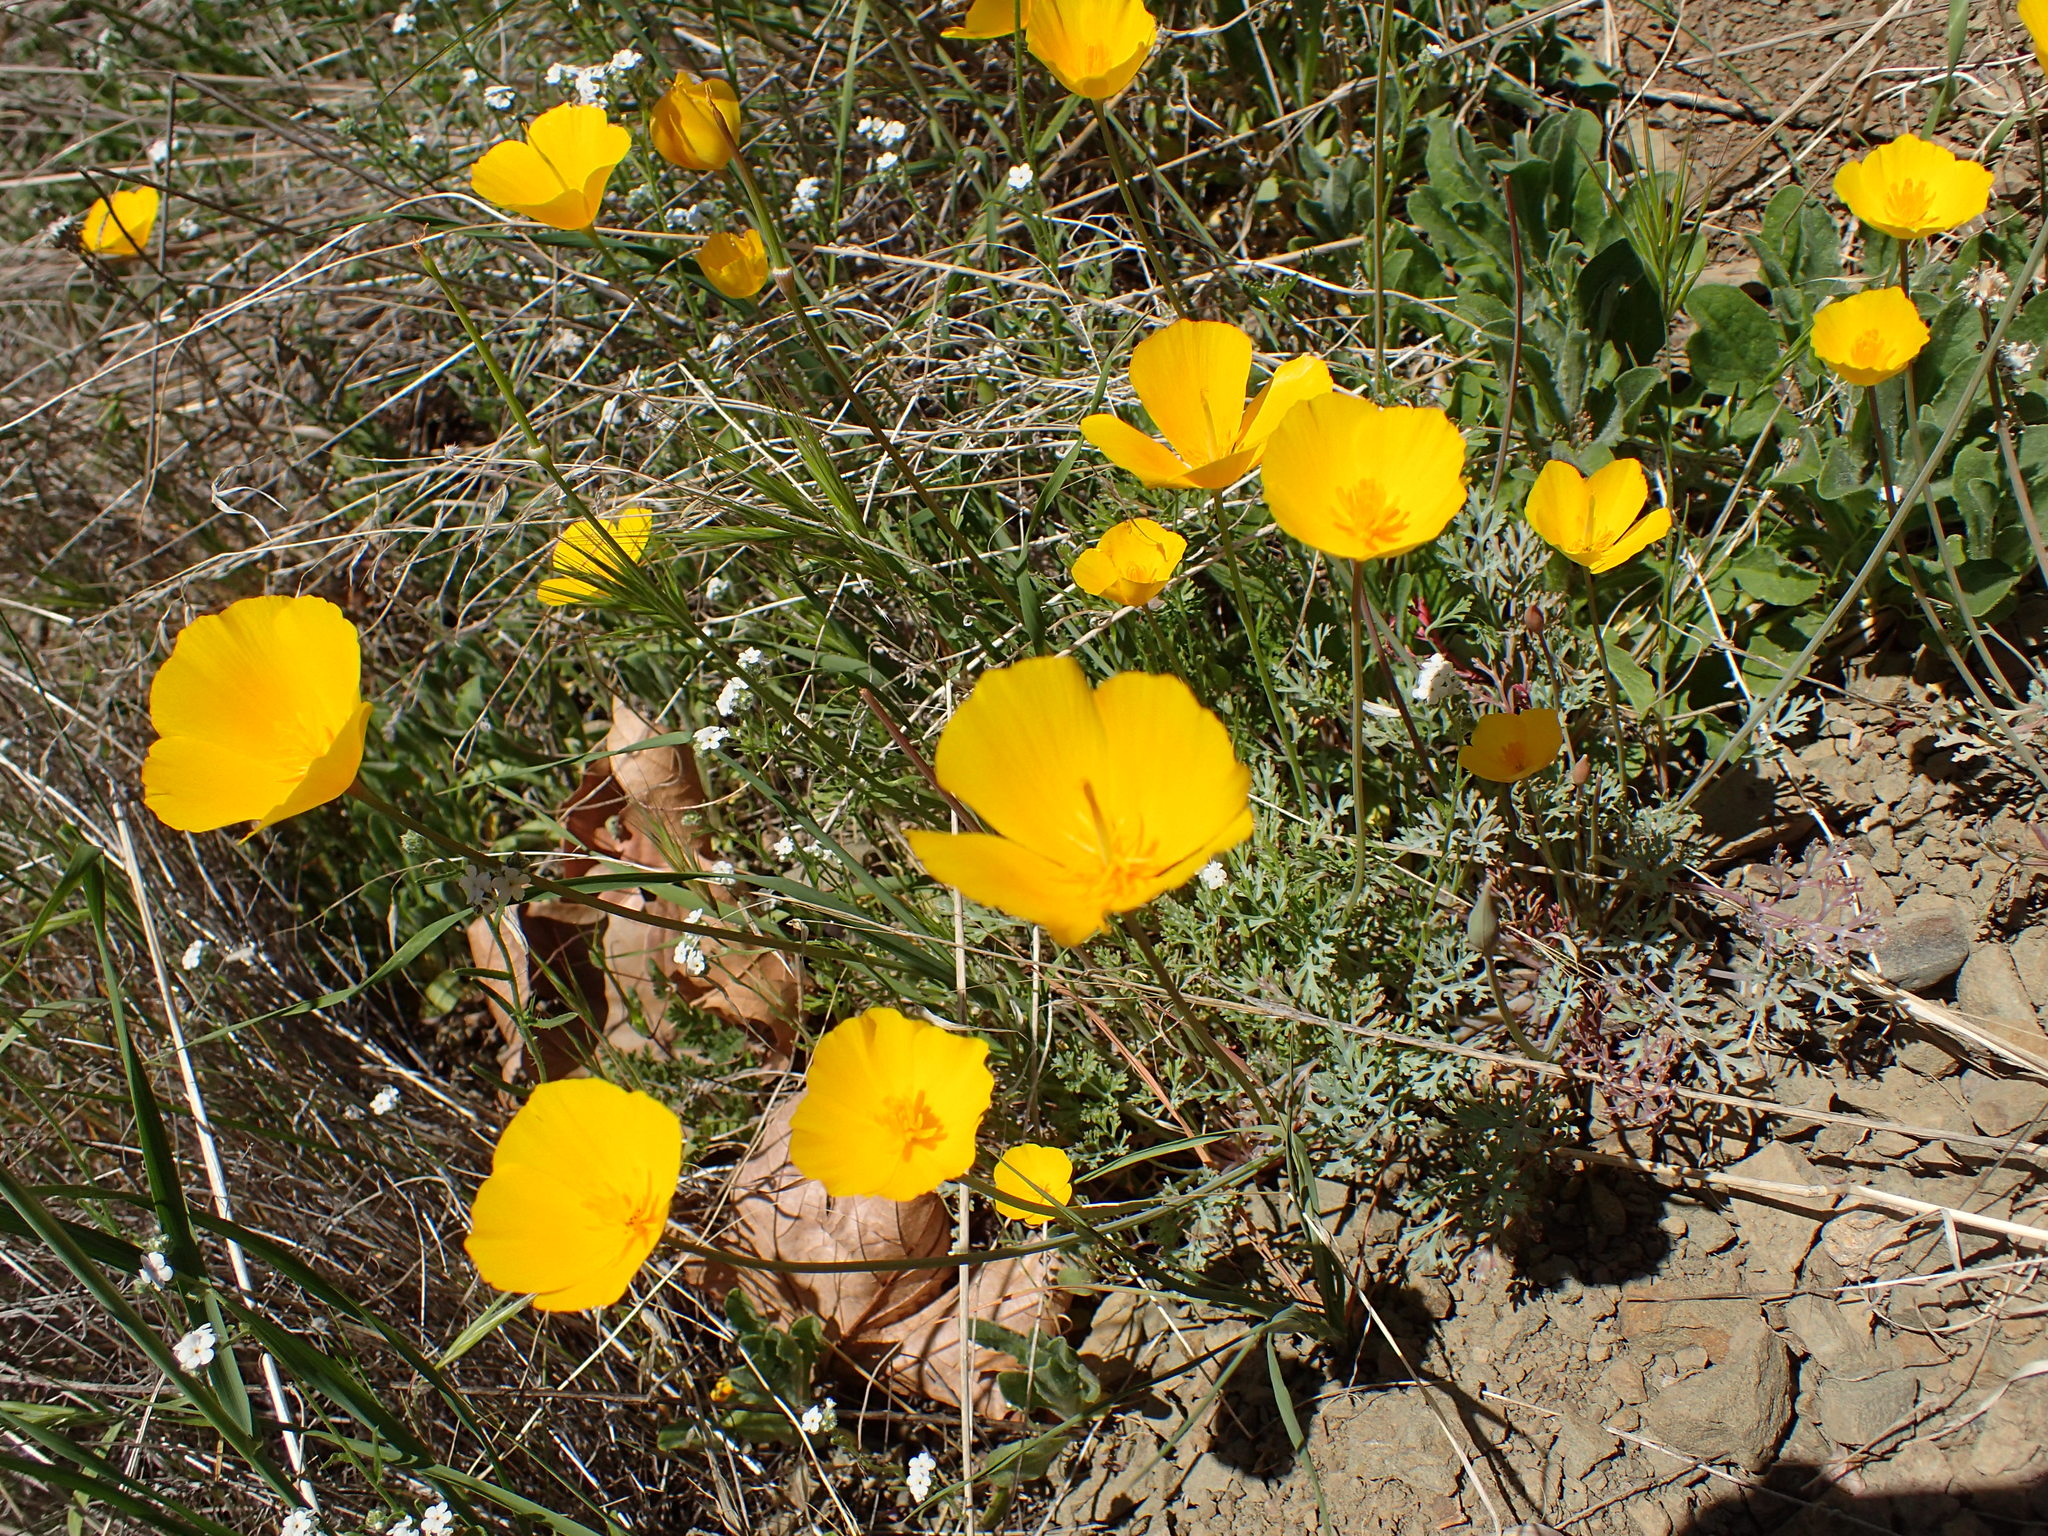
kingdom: Plantae
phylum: Tracheophyta
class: Magnoliopsida
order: Ranunculales
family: Papaveraceae
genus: Eschscholzia
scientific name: Eschscholzia caespitosa
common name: Tufted california-poppy
